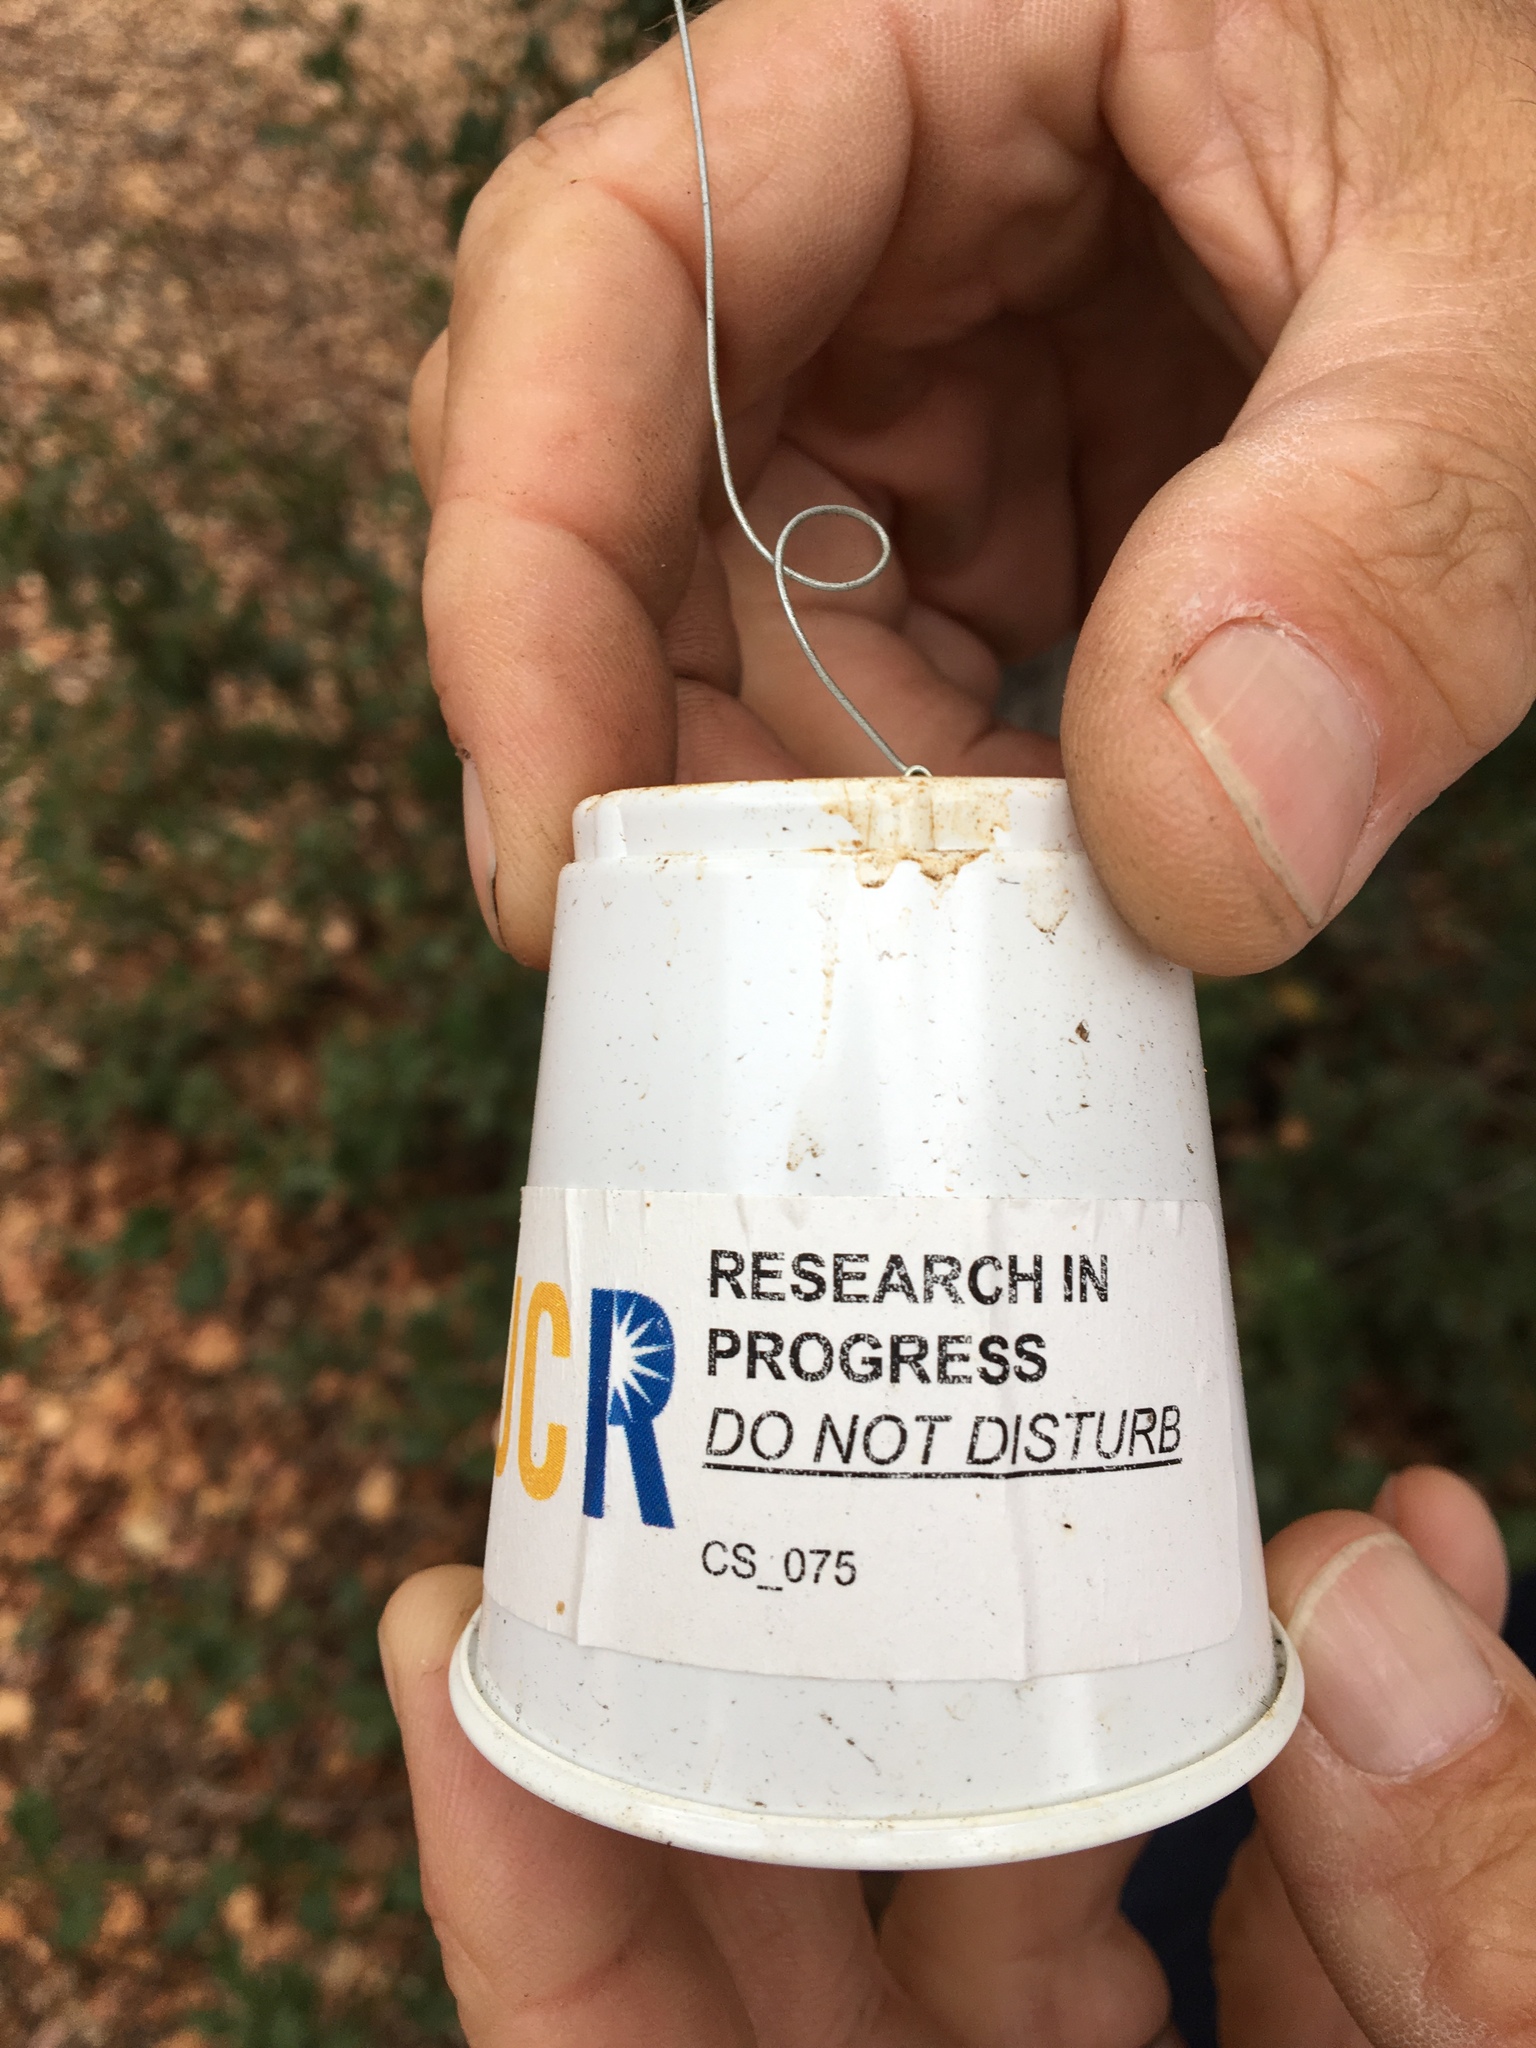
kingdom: Plantae
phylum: Tracheophyta
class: Magnoliopsida
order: Fagales
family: Fagaceae
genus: Quercus
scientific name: Quercus agrifolia
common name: California live oak
